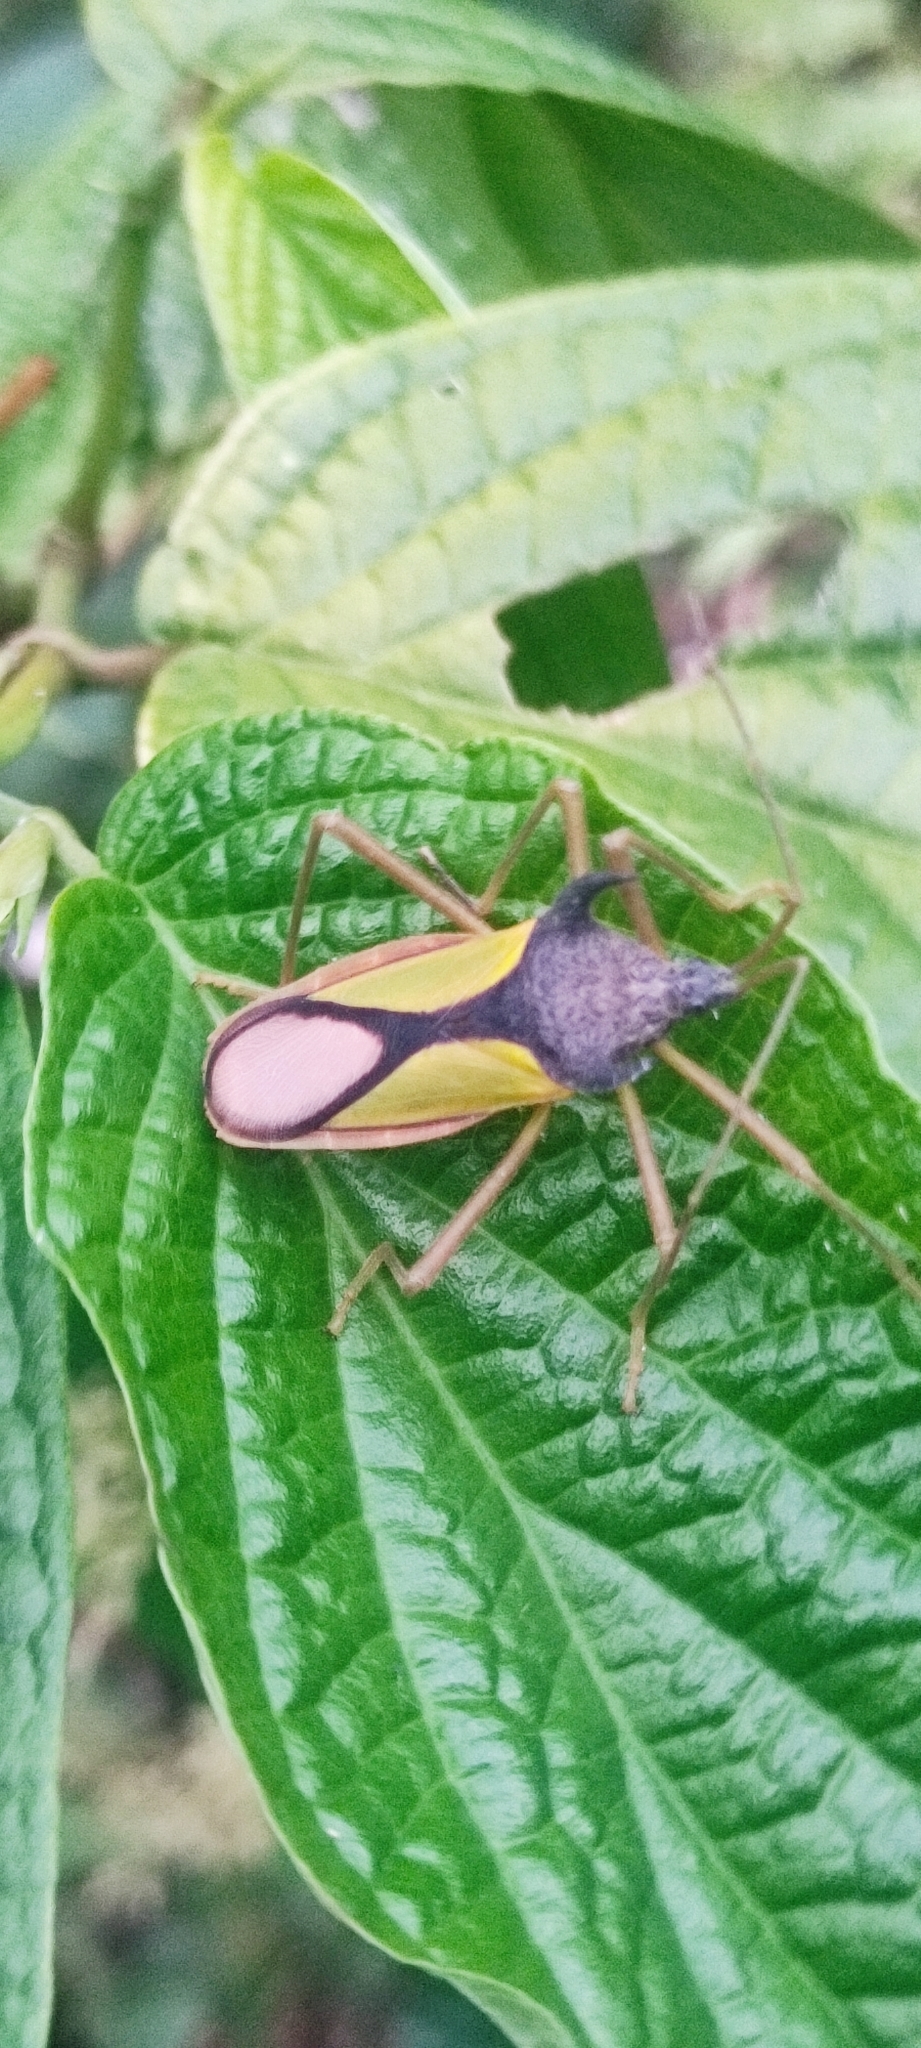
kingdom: Animalia
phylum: Arthropoda
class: Insecta
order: Hemiptera
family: Coreidae
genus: Euagona
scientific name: Euagona diana
